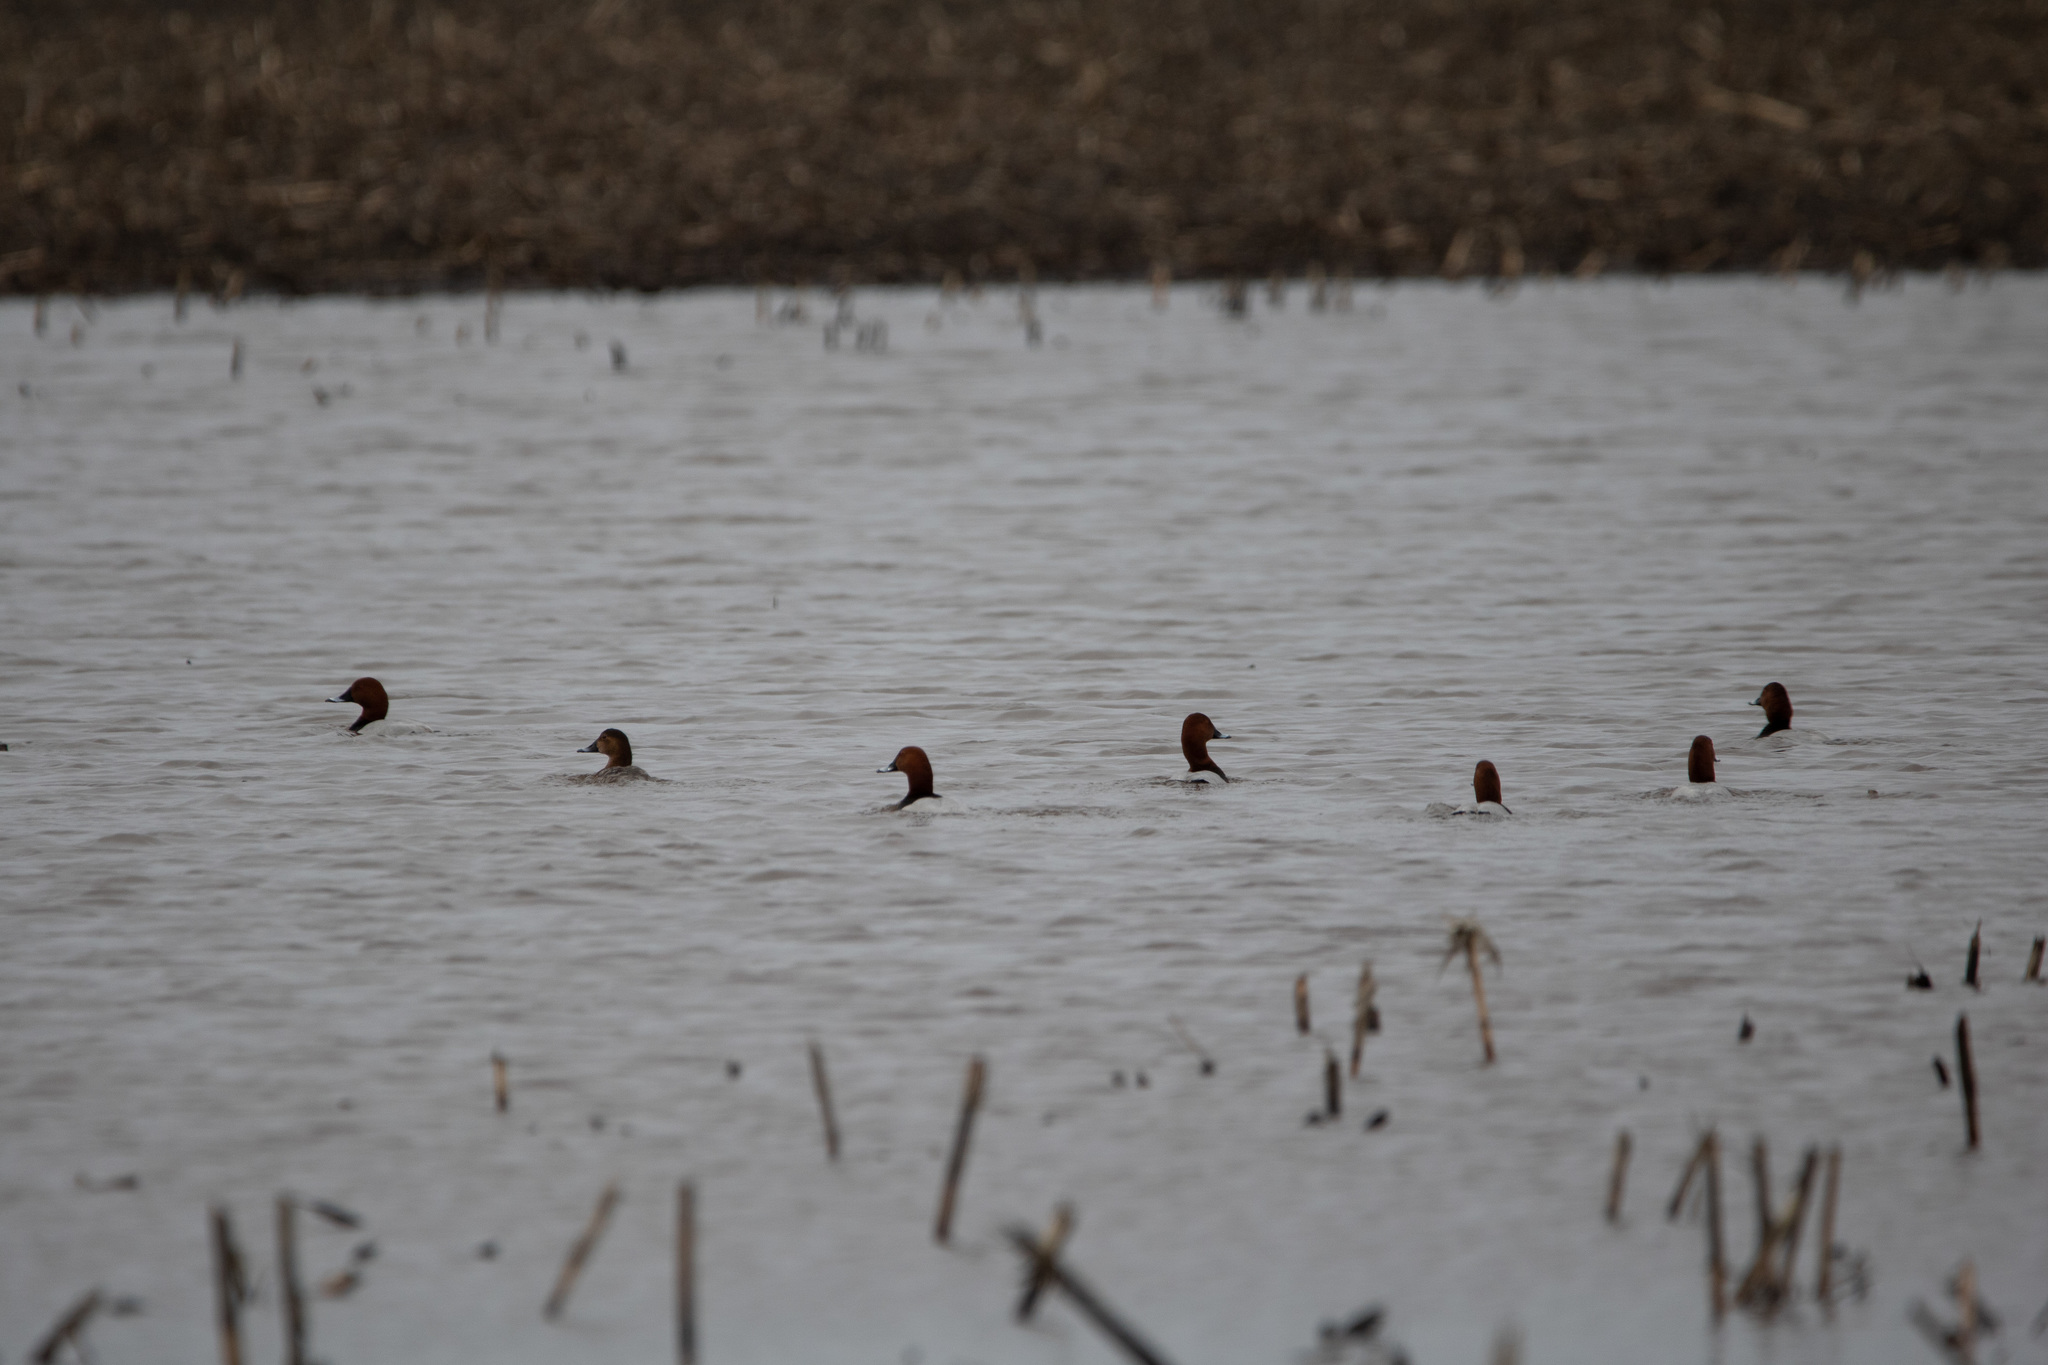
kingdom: Animalia
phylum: Chordata
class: Aves
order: Anseriformes
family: Anatidae
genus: Aythya
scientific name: Aythya ferina
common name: Common pochard
